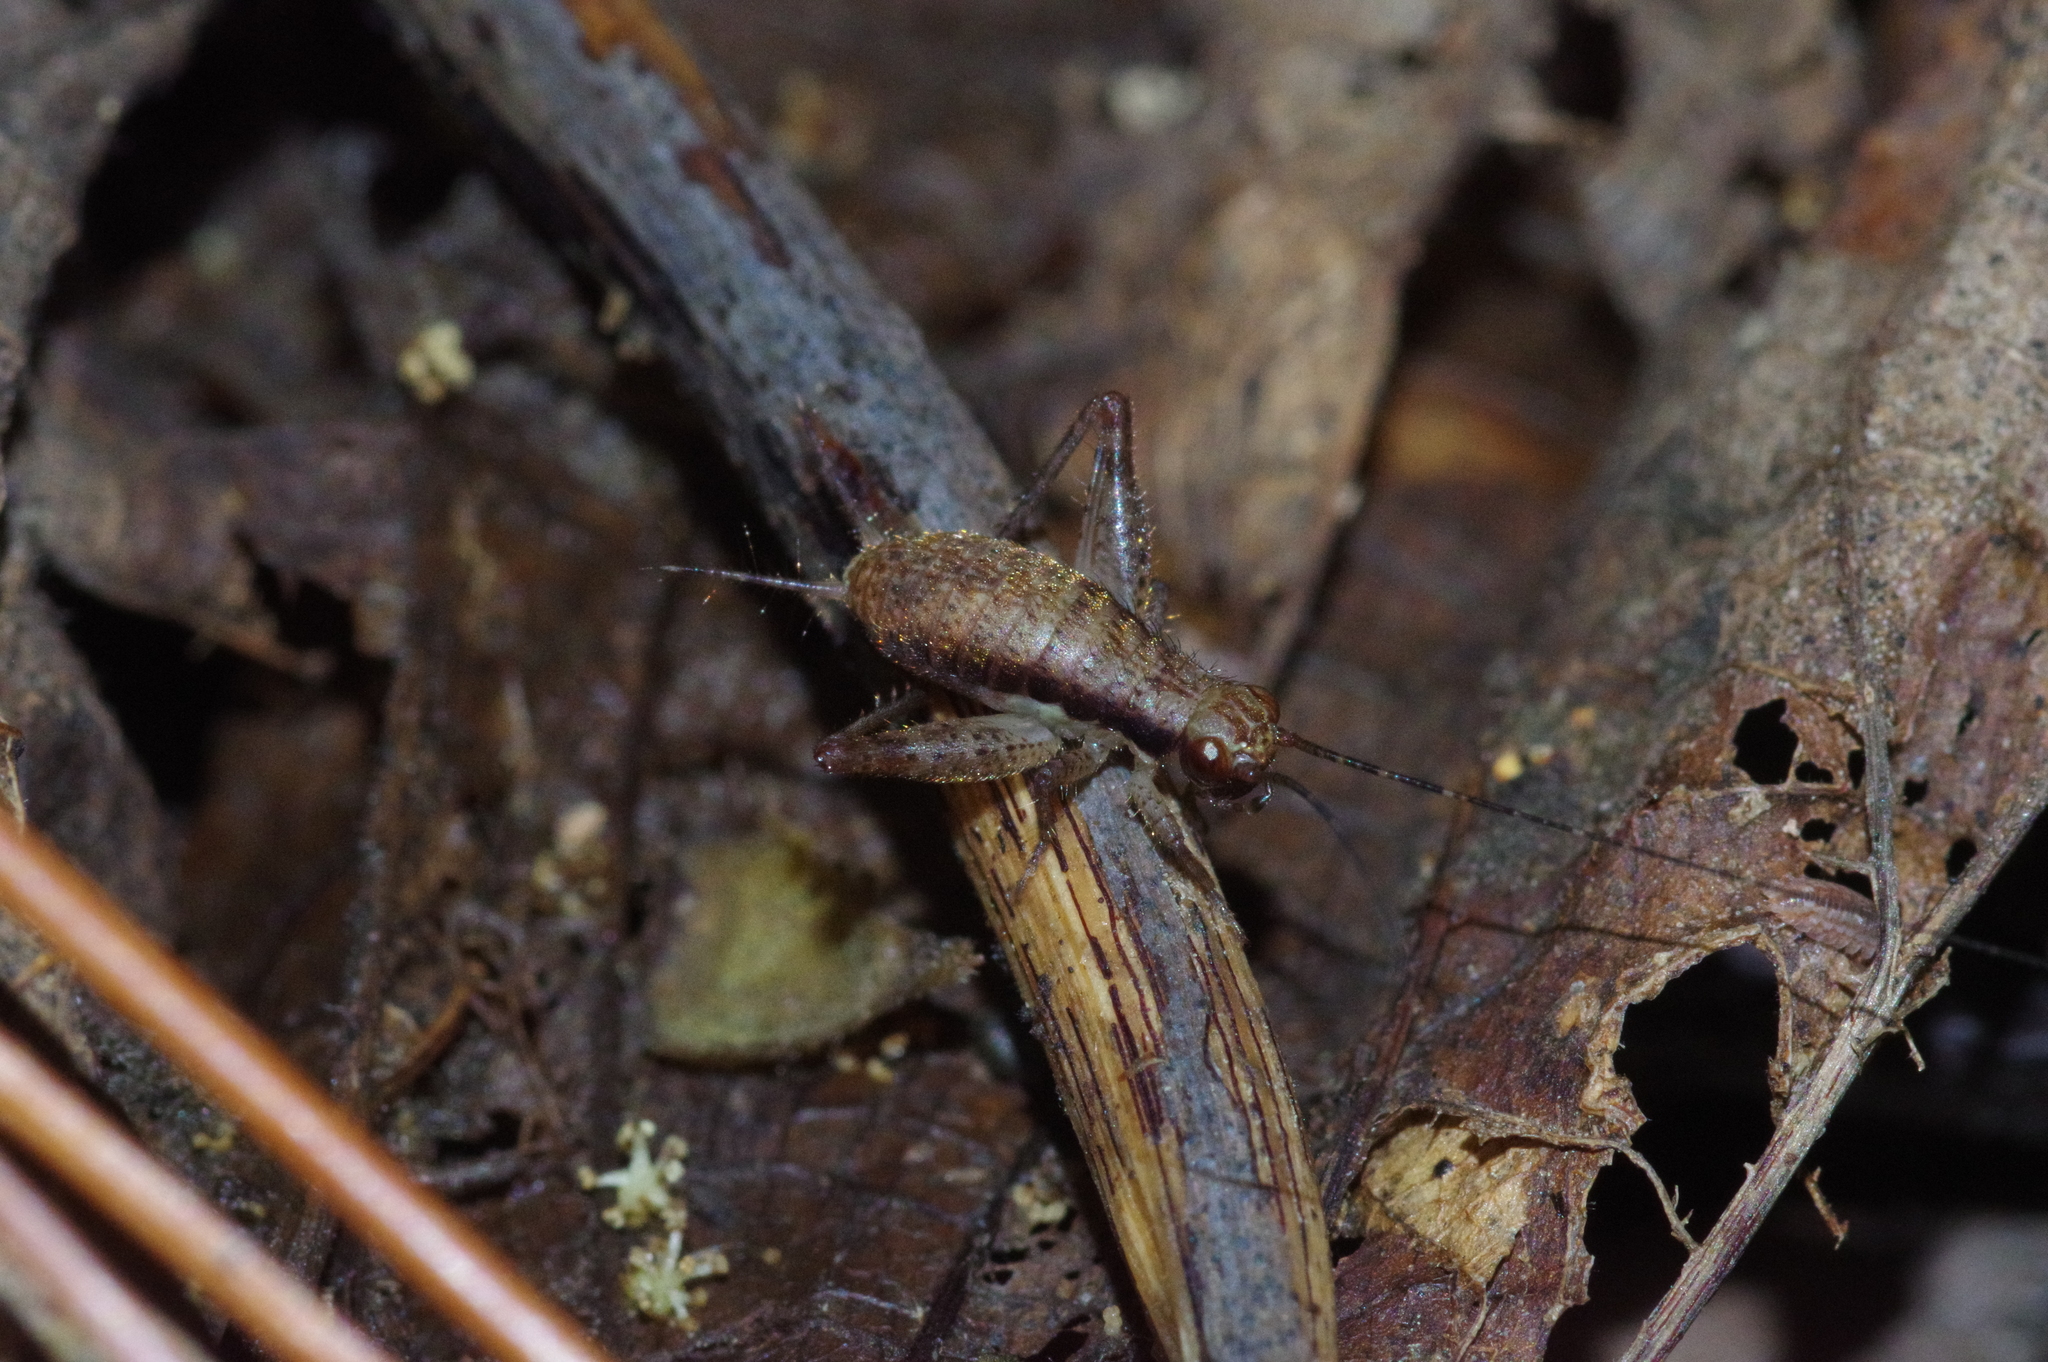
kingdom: Animalia
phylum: Arthropoda
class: Insecta
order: Orthoptera
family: Gryllidae
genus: Cardiodactylus
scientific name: Cardiodactylus guttulus
